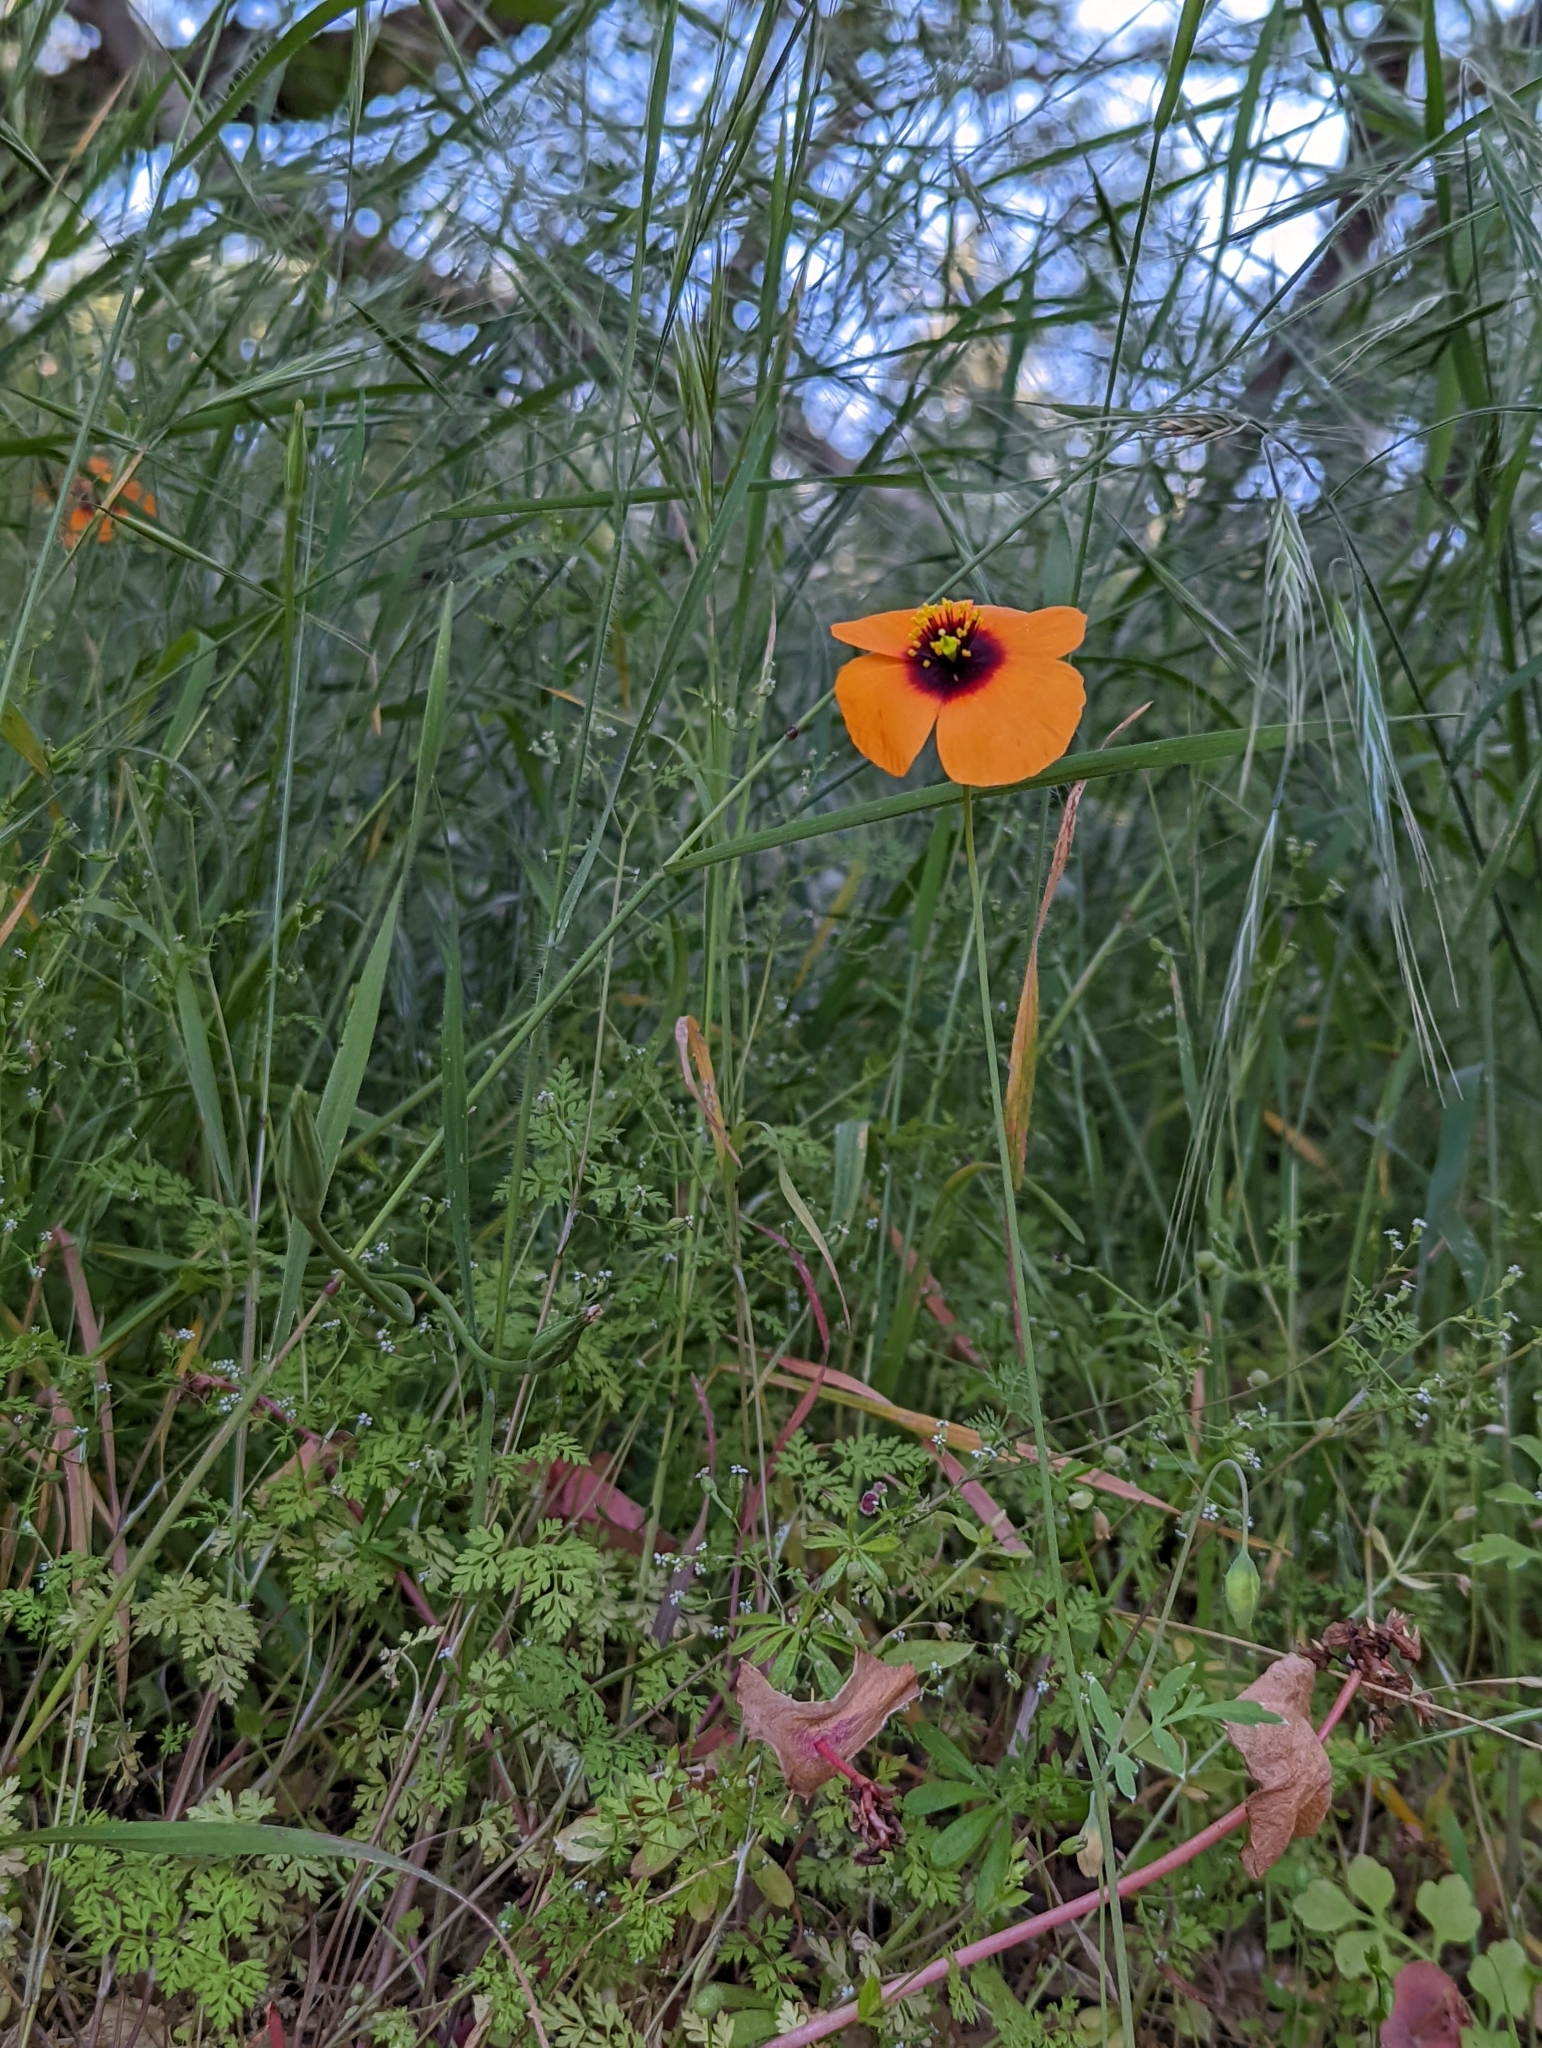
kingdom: Plantae
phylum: Tracheophyta
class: Magnoliopsida
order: Ranunculales
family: Papaveraceae
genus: Stylomecon
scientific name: Stylomecon heterophylla
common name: Flaming-poppy
